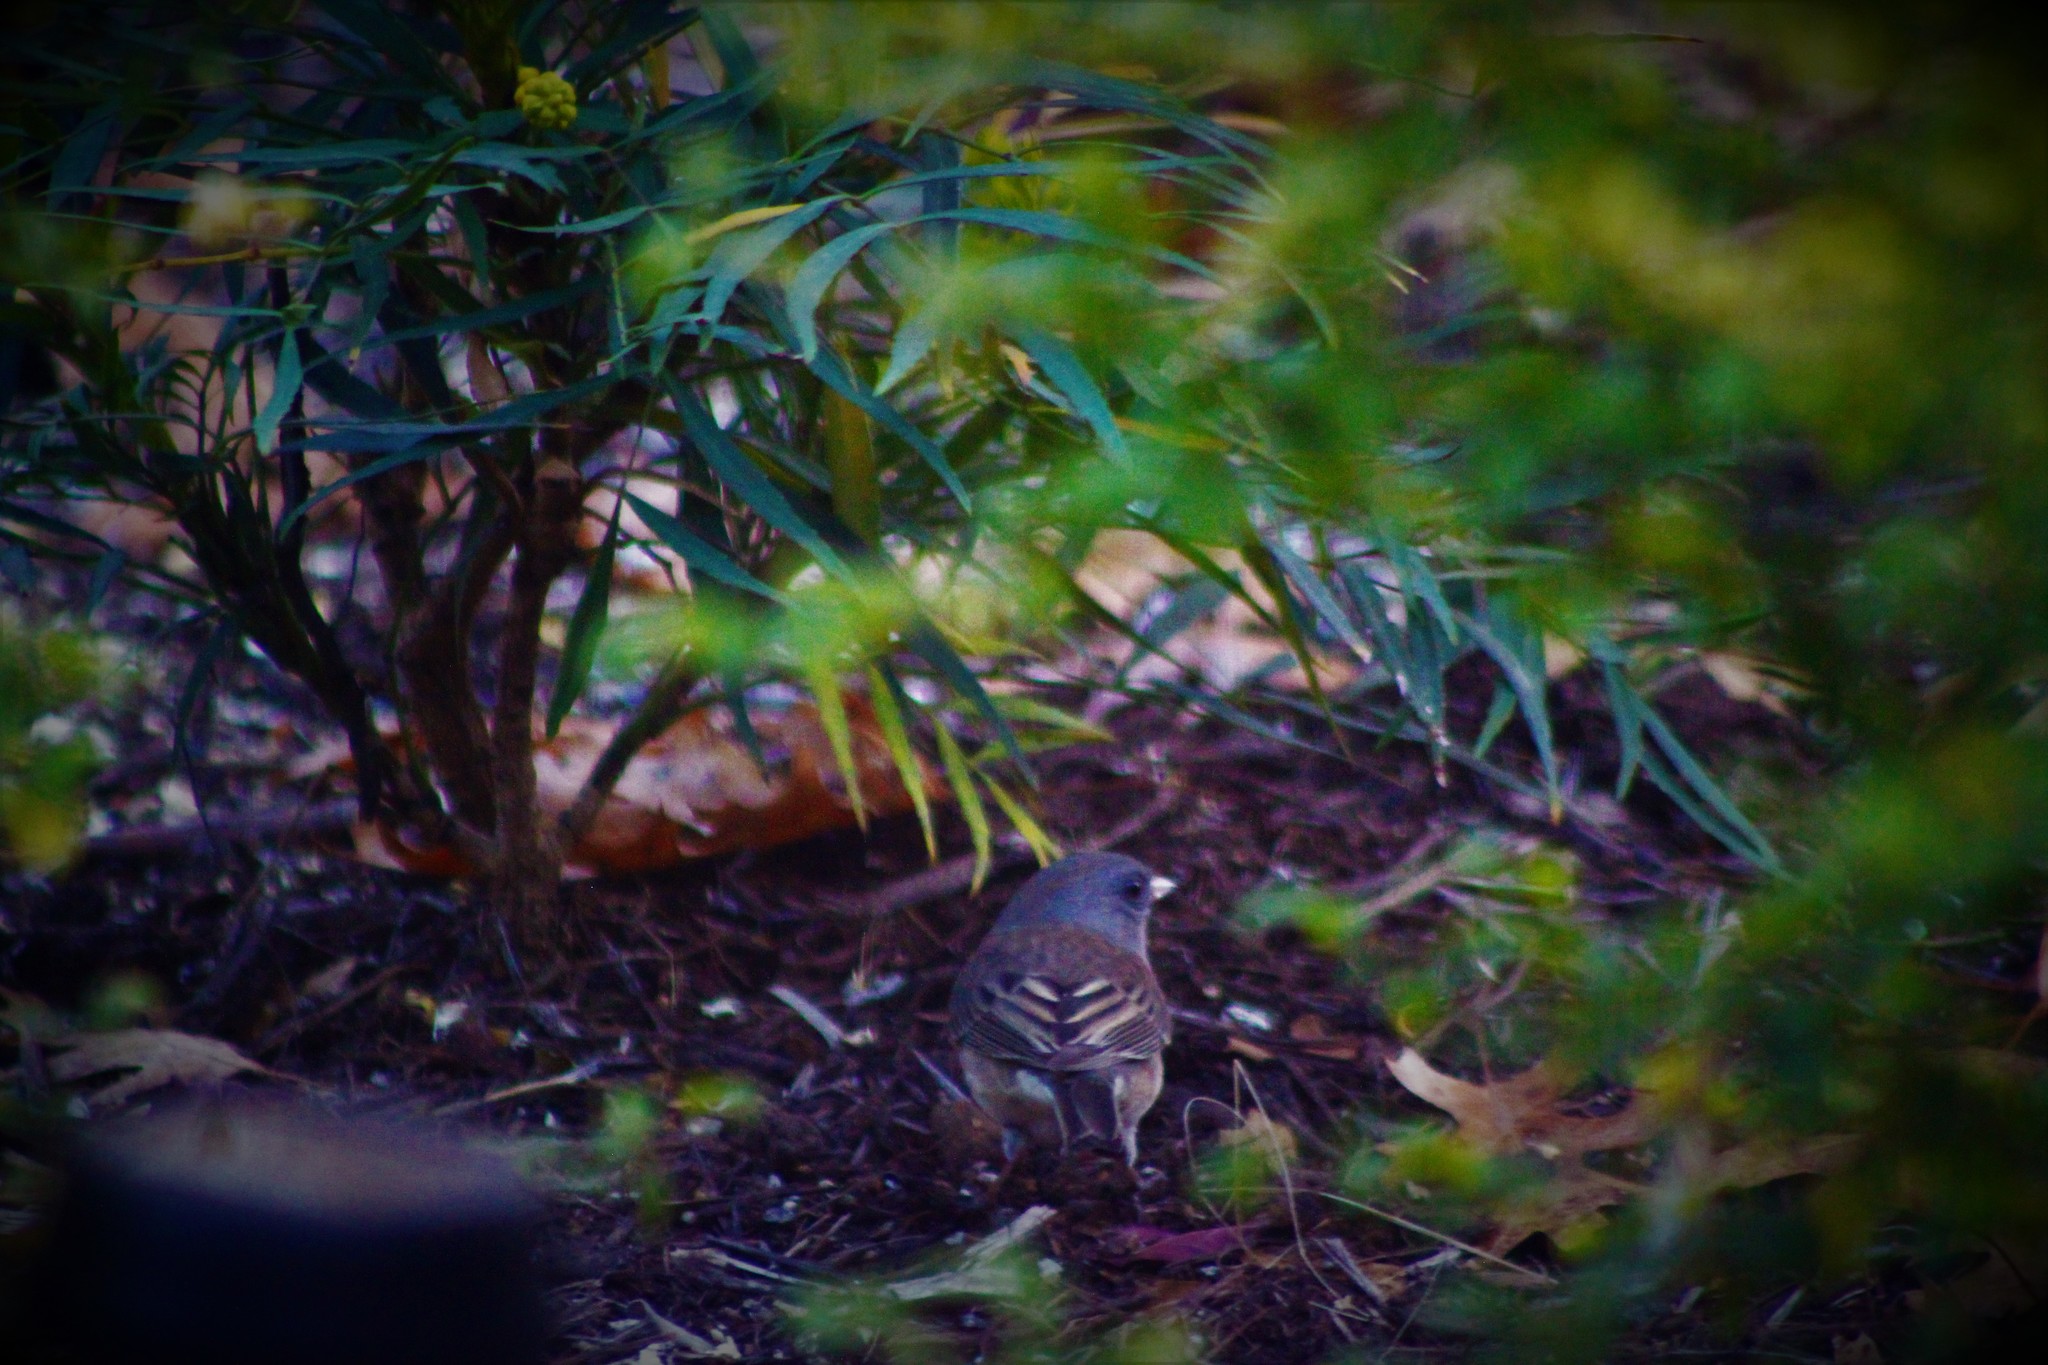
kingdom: Animalia
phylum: Chordata
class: Aves
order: Passeriformes
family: Passerellidae
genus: Junco
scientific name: Junco hyemalis
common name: Dark-eyed junco
